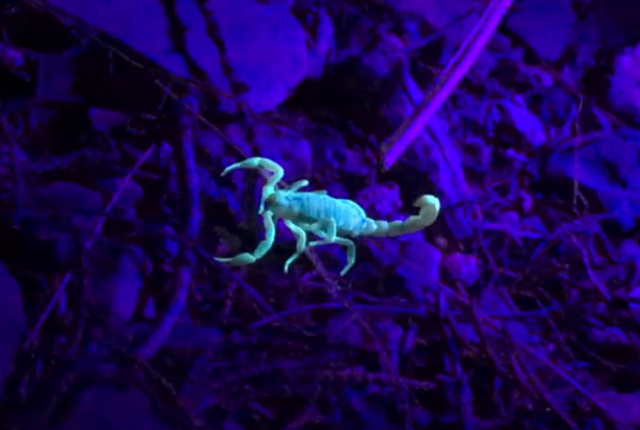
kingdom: Animalia
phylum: Arthropoda
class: Arachnida
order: Scorpiones
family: Vaejovidae
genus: Paravaejovis
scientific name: Paravaejovis spinigerus
